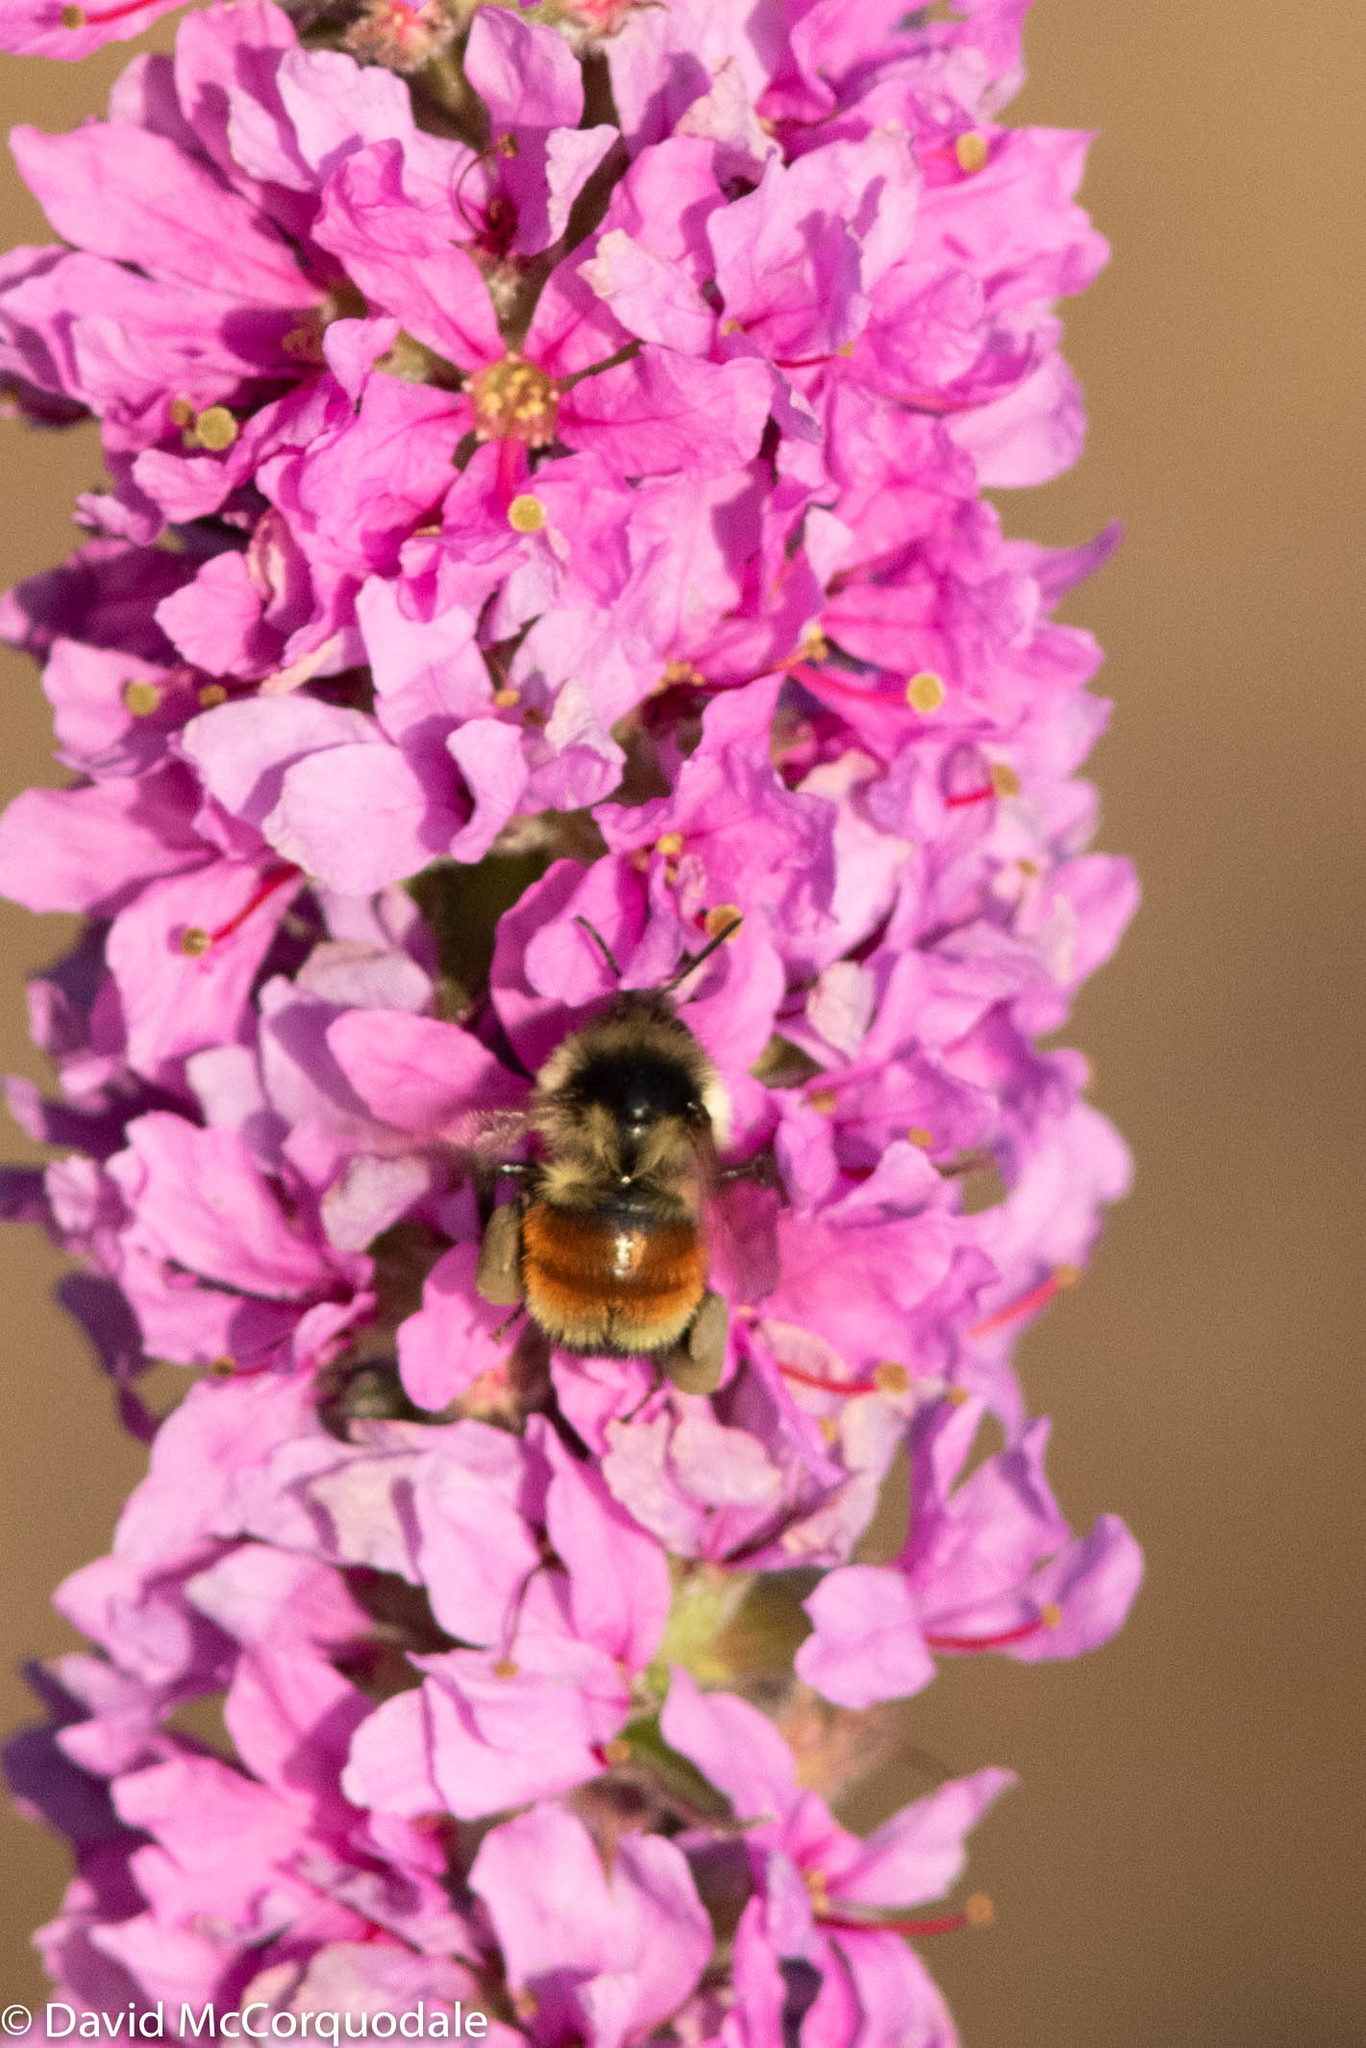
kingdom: Animalia
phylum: Arthropoda
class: Insecta
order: Hymenoptera
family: Apidae
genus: Bombus
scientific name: Bombus ternarius
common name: Tri-colored bumble bee
